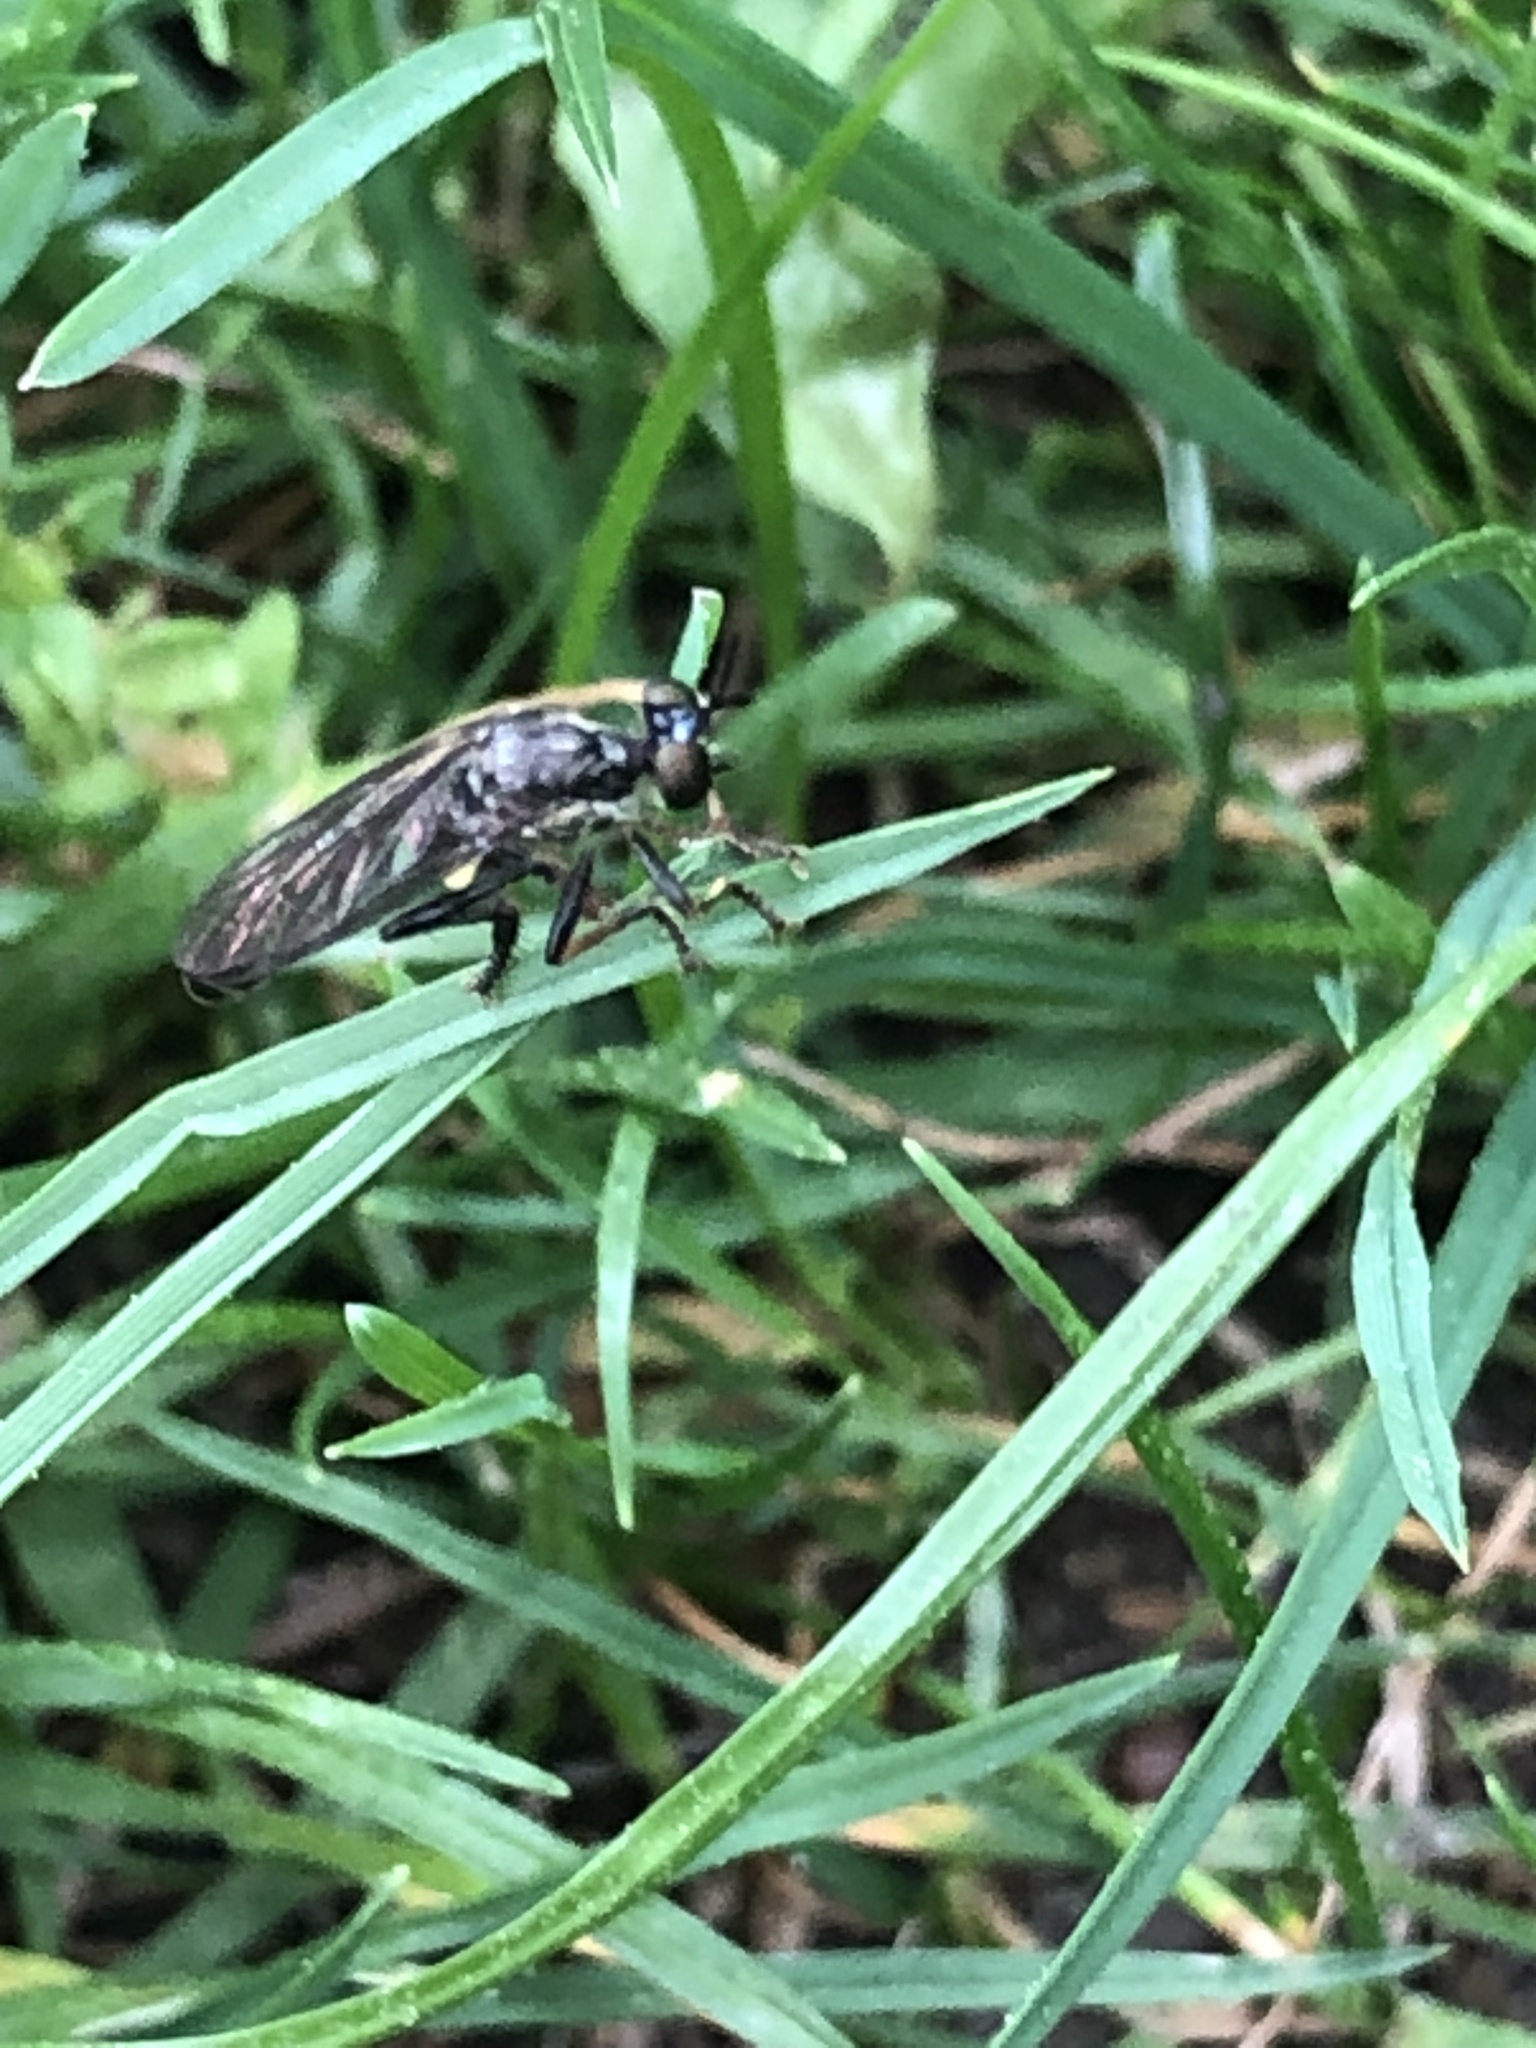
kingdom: Animalia
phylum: Arthropoda
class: Insecta
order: Diptera
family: Asilidae
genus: Dioctria
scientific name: Dioctria hyalipennis
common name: Stripe-legged robberfly
